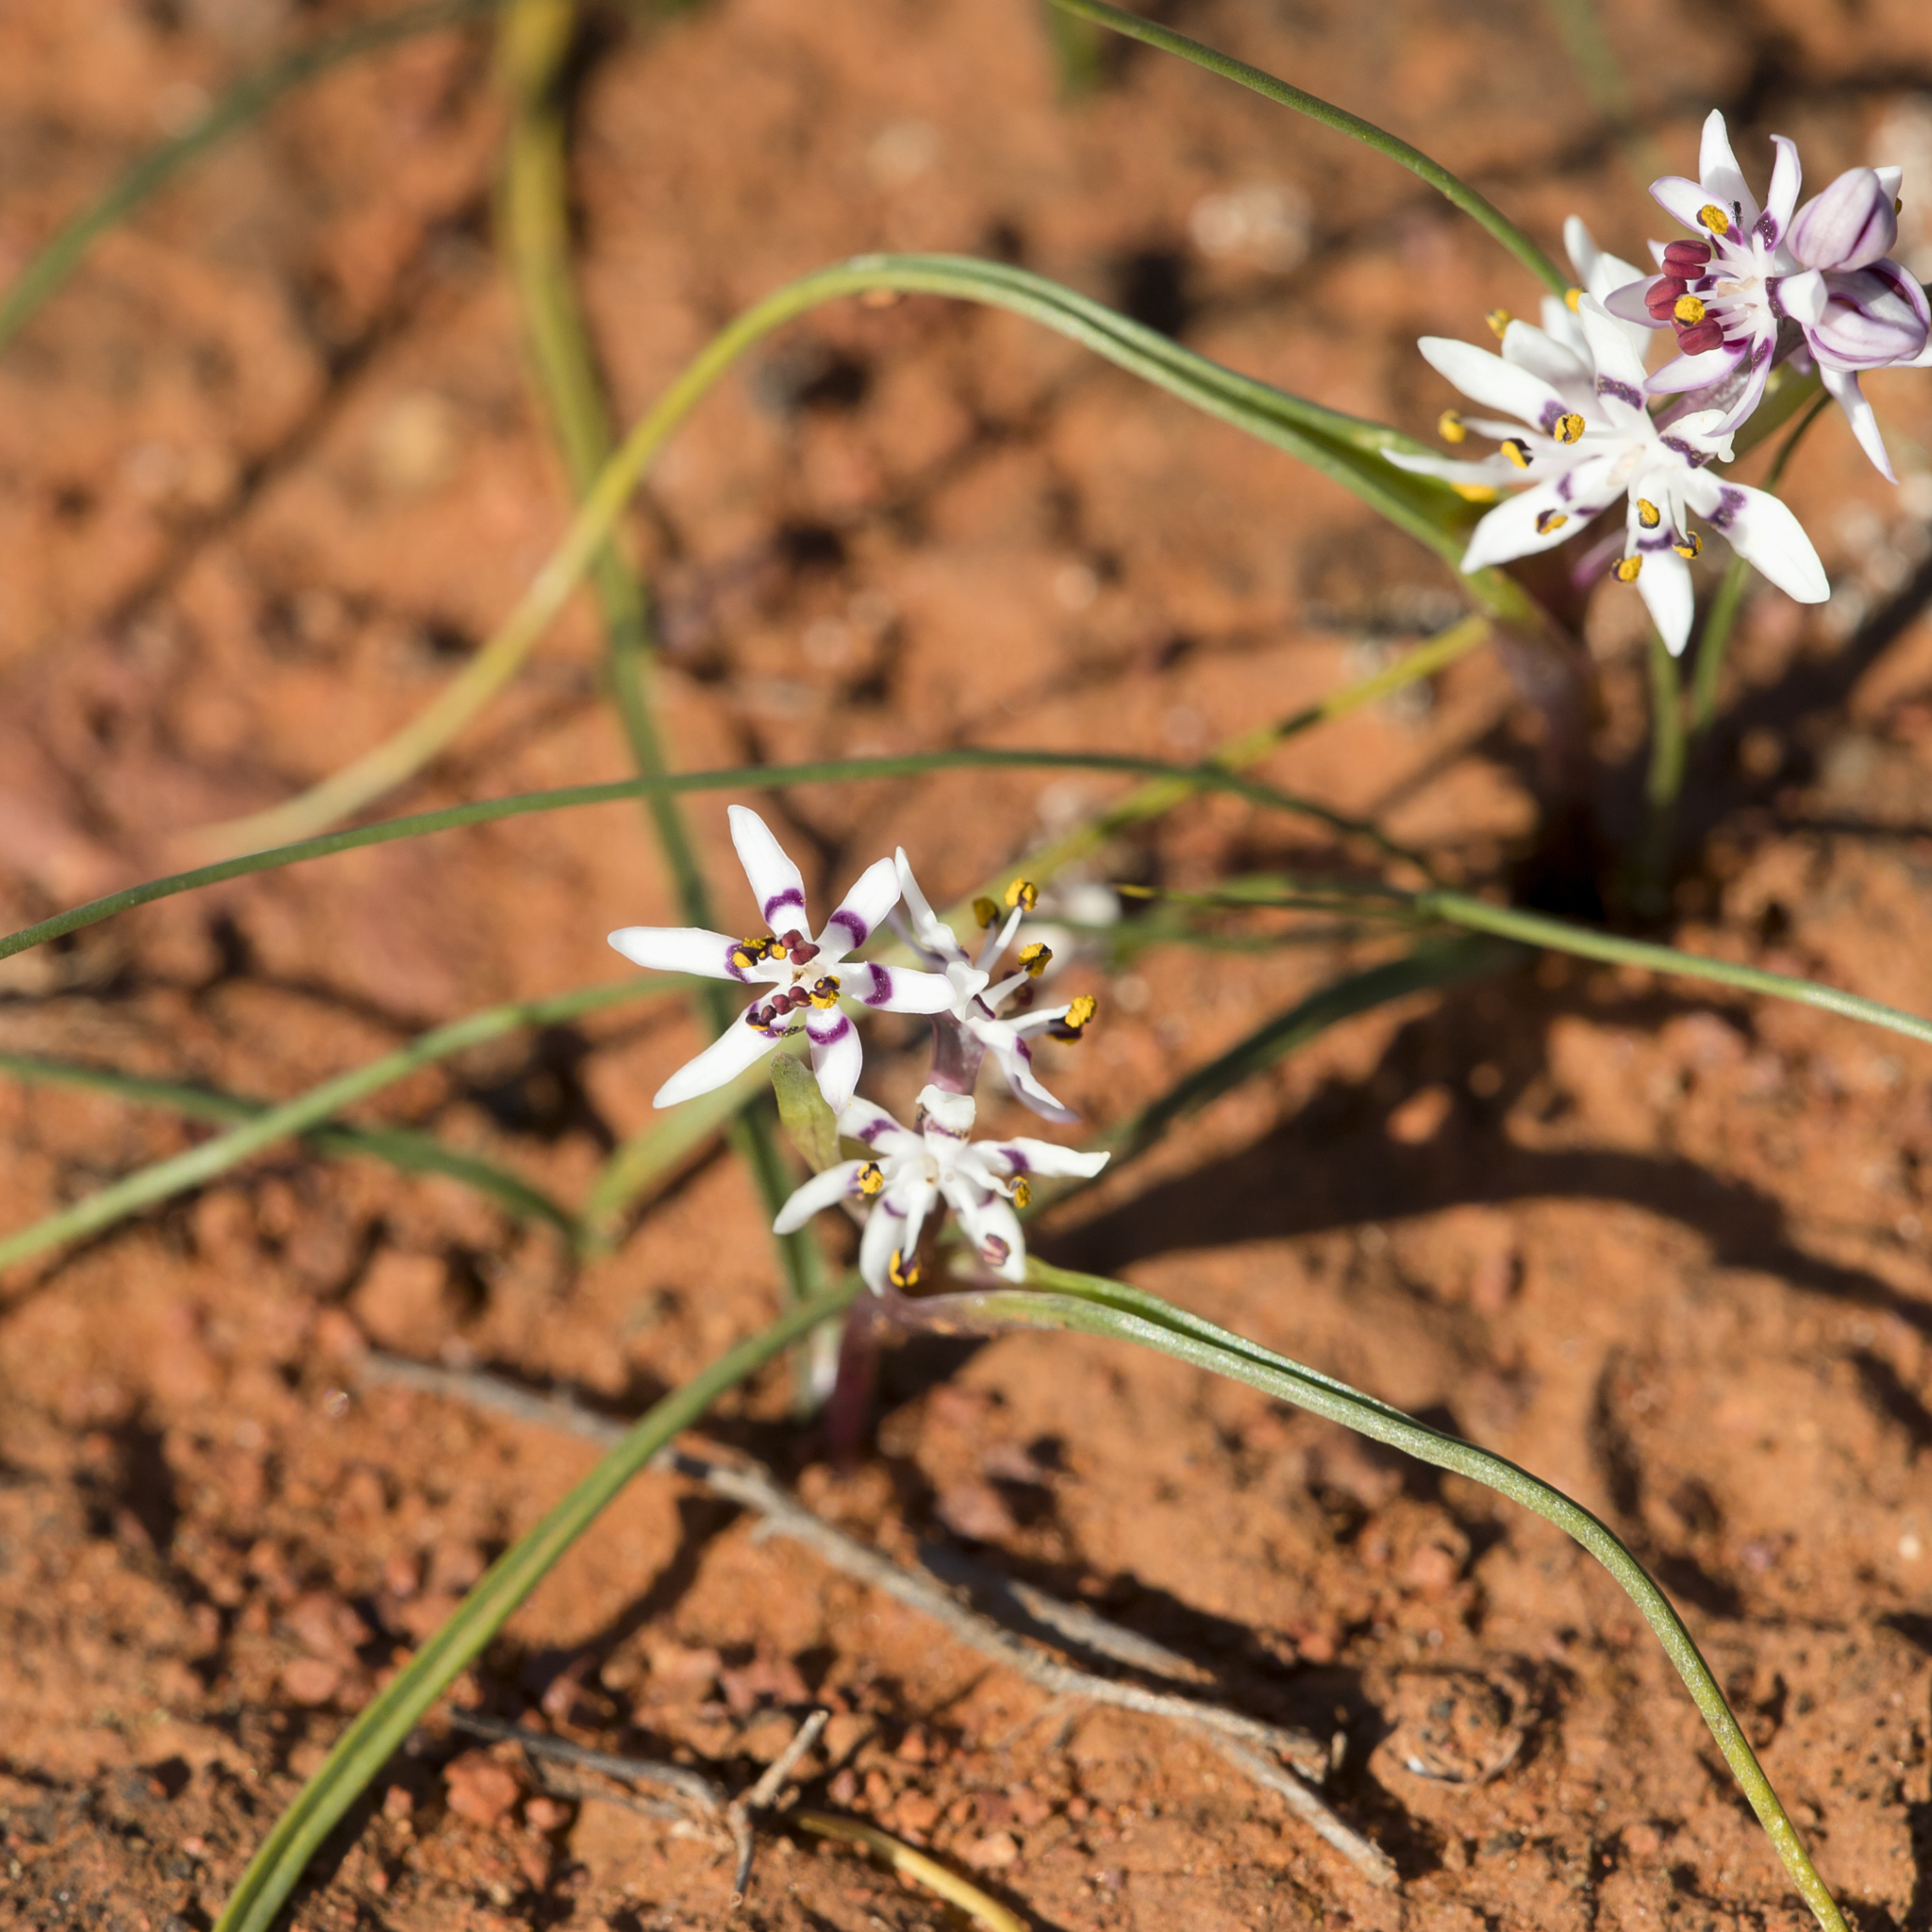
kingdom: Plantae
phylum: Tracheophyta
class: Liliopsida
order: Liliales
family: Colchicaceae
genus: Wurmbea
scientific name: Wurmbea dioica
